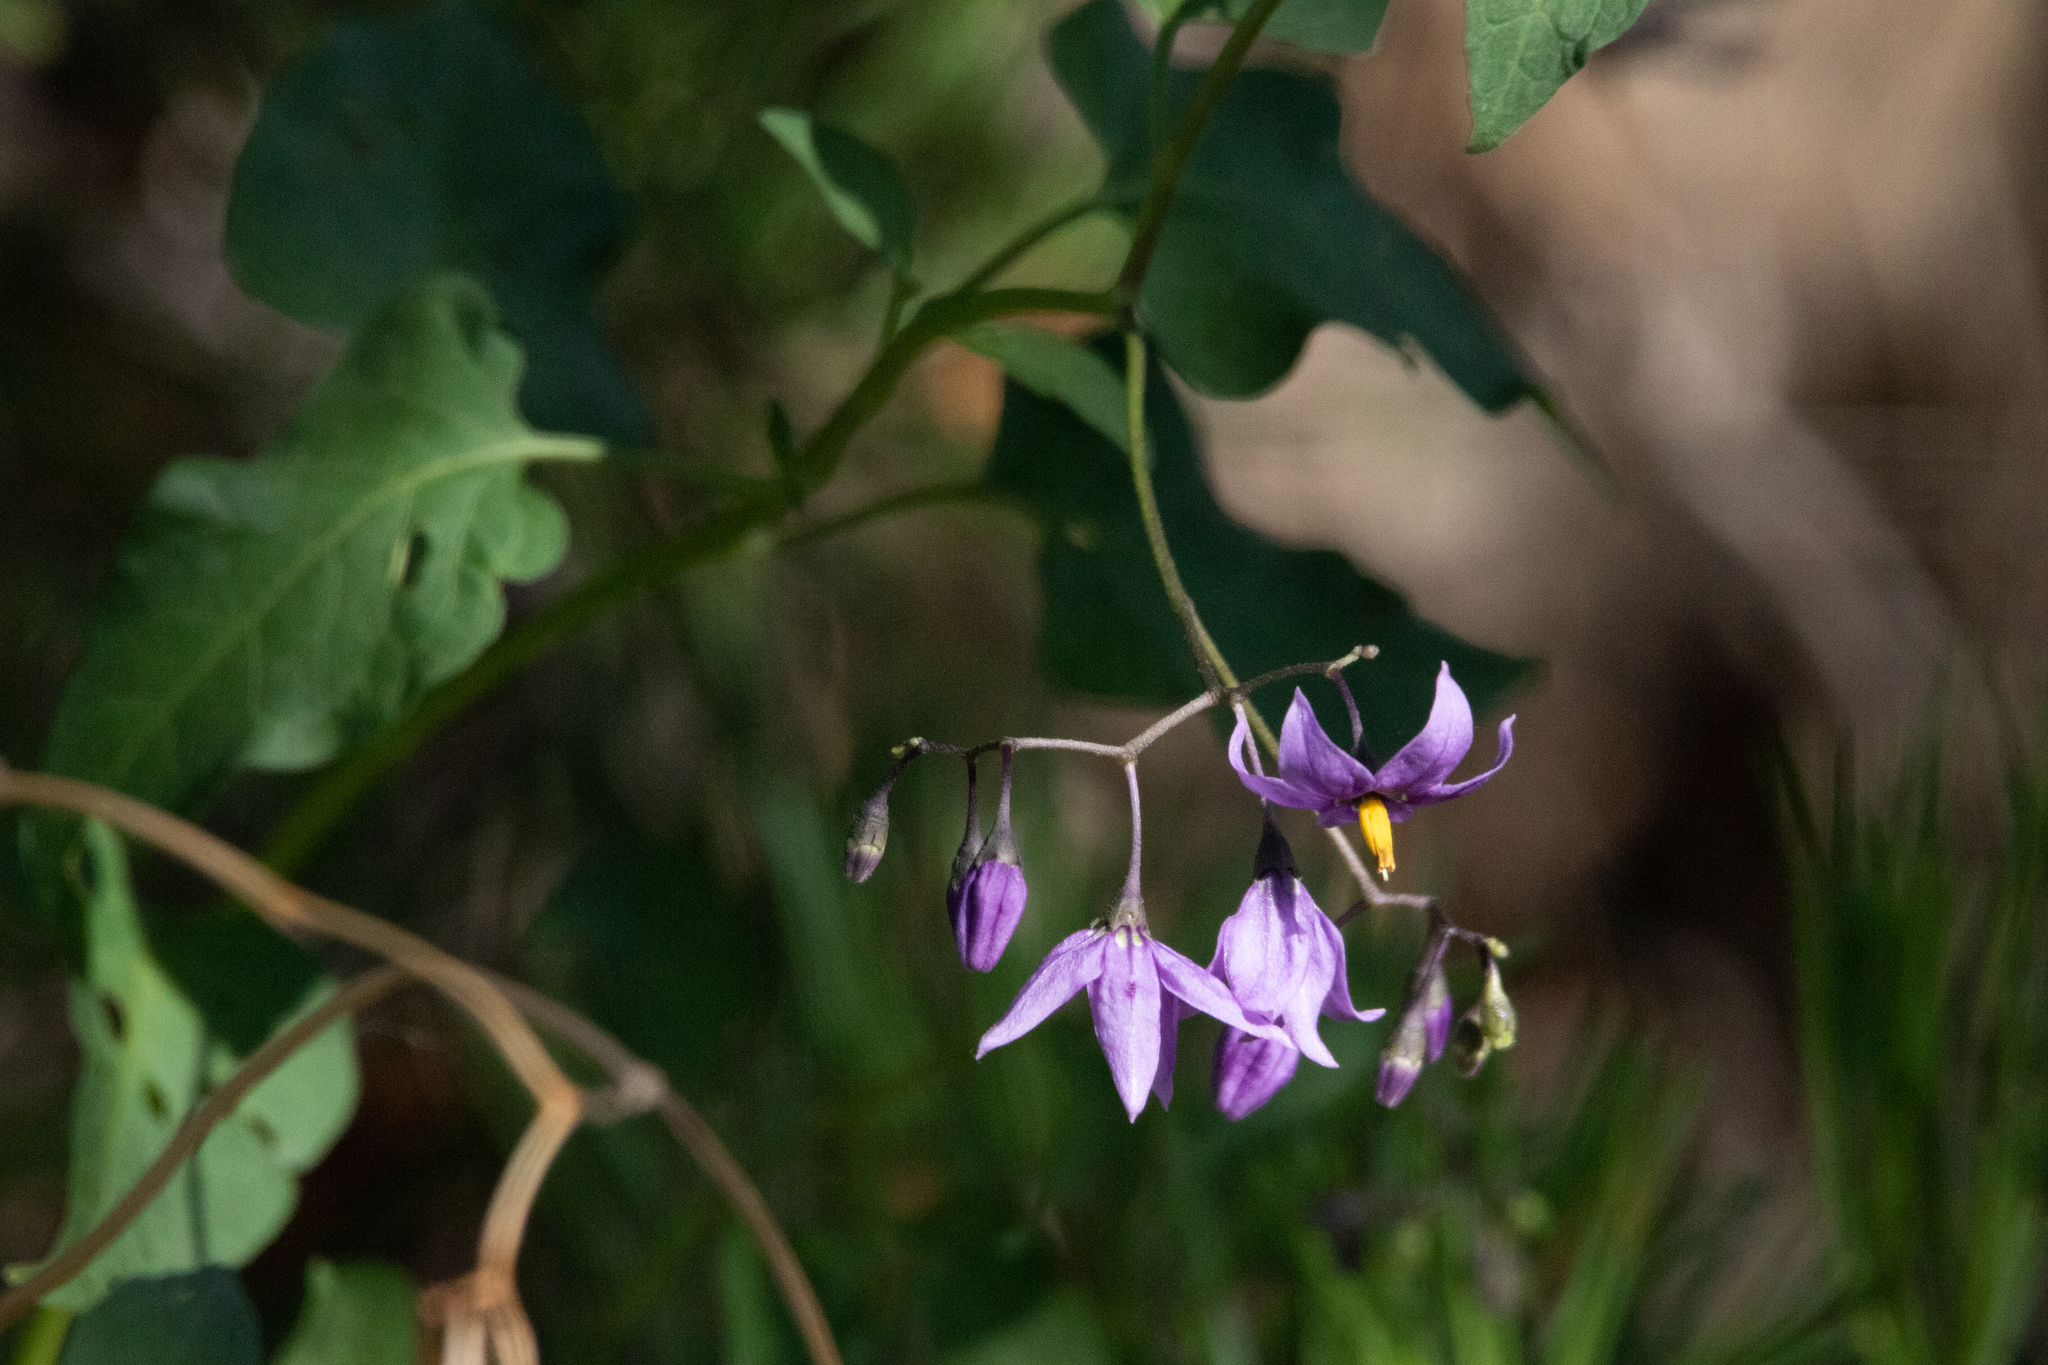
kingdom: Plantae
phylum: Tracheophyta
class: Magnoliopsida
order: Solanales
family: Solanaceae
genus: Solanum
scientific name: Solanum dulcamara
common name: Climbing nightshade
